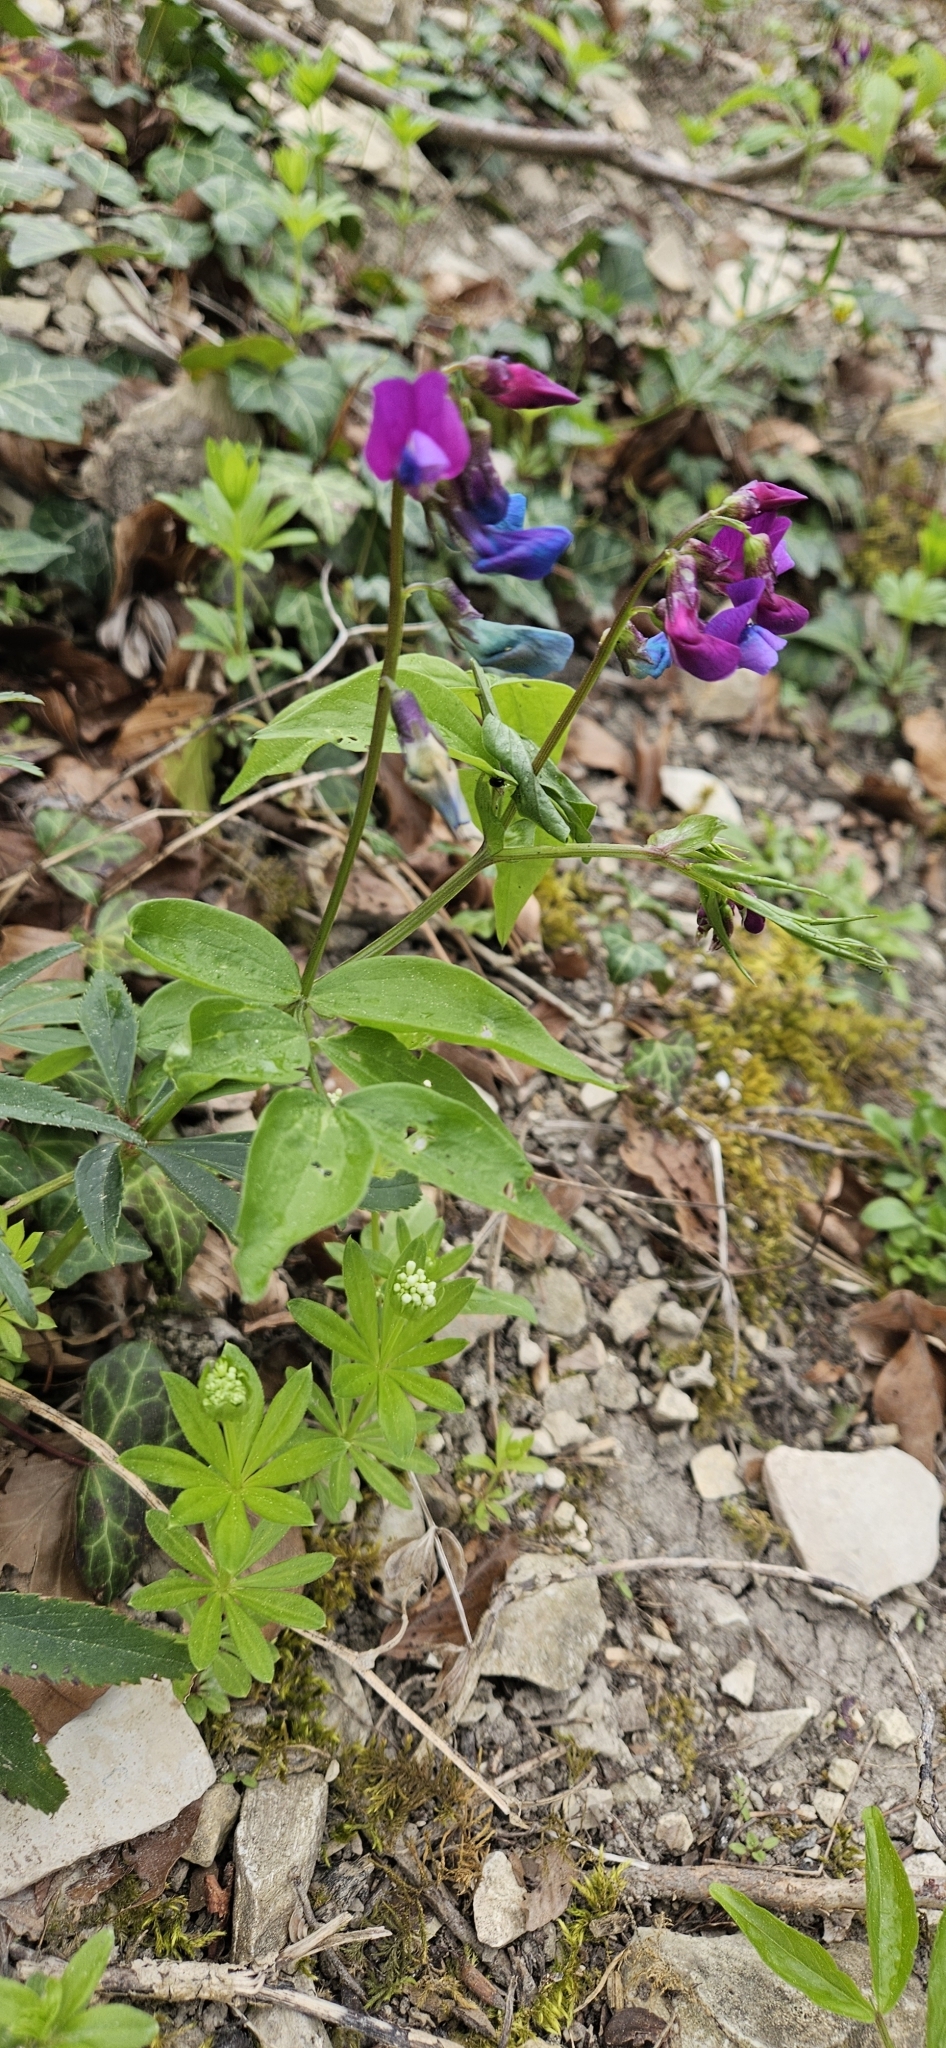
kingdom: Plantae
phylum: Tracheophyta
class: Magnoliopsida
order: Fabales
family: Fabaceae
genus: Lathyrus
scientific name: Lathyrus vernus
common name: Spring pea
